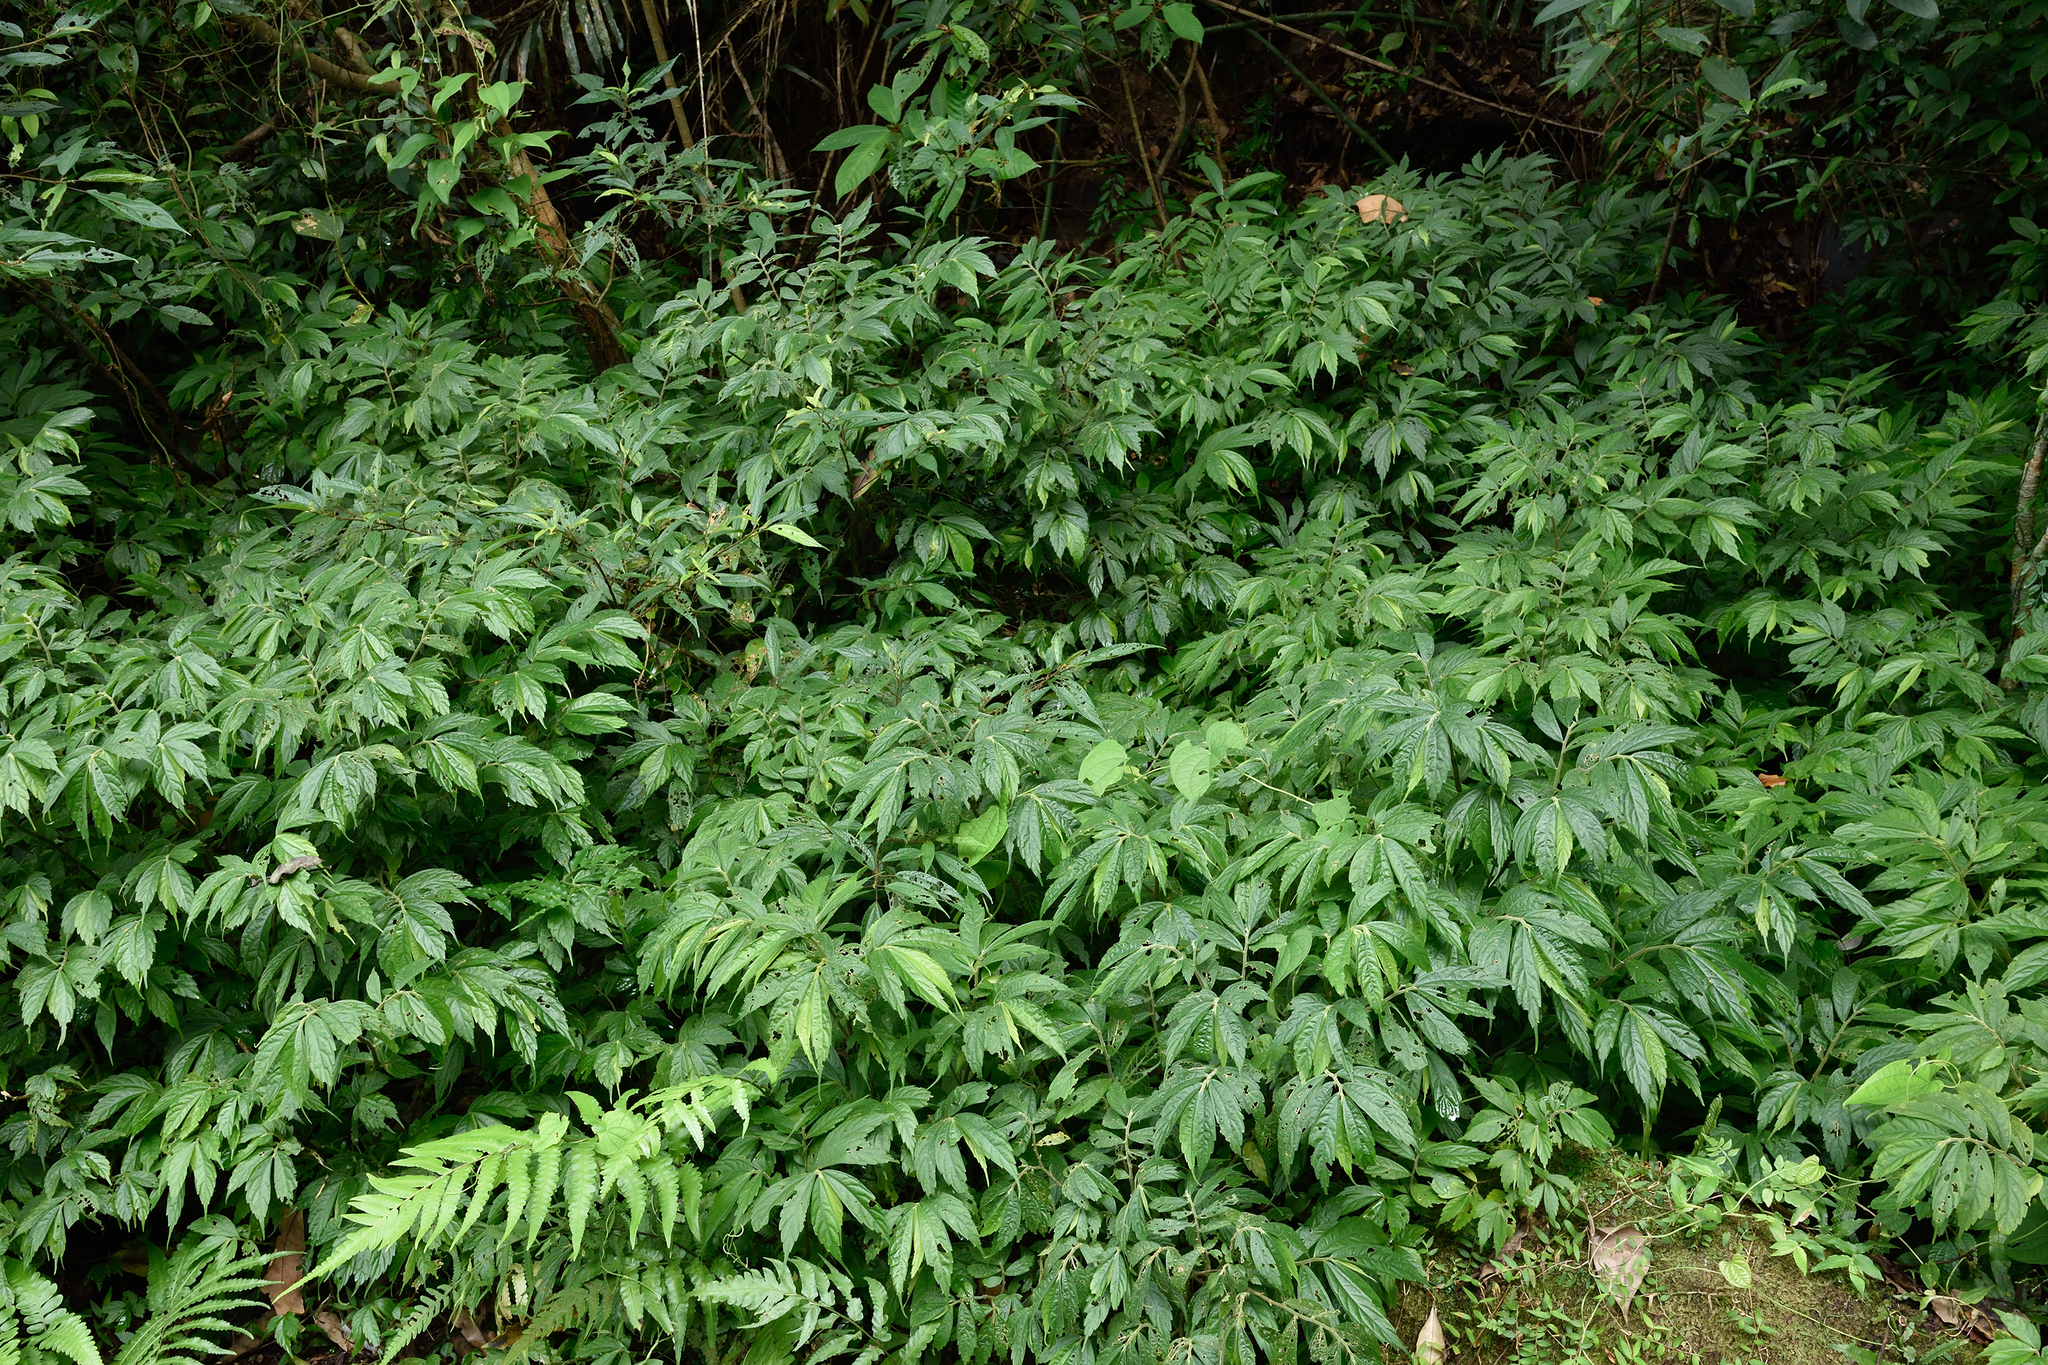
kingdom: Plantae
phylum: Tracheophyta
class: Magnoliopsida
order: Rosales
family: Urticaceae
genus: Elatostema
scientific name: Elatostema lineolatum
